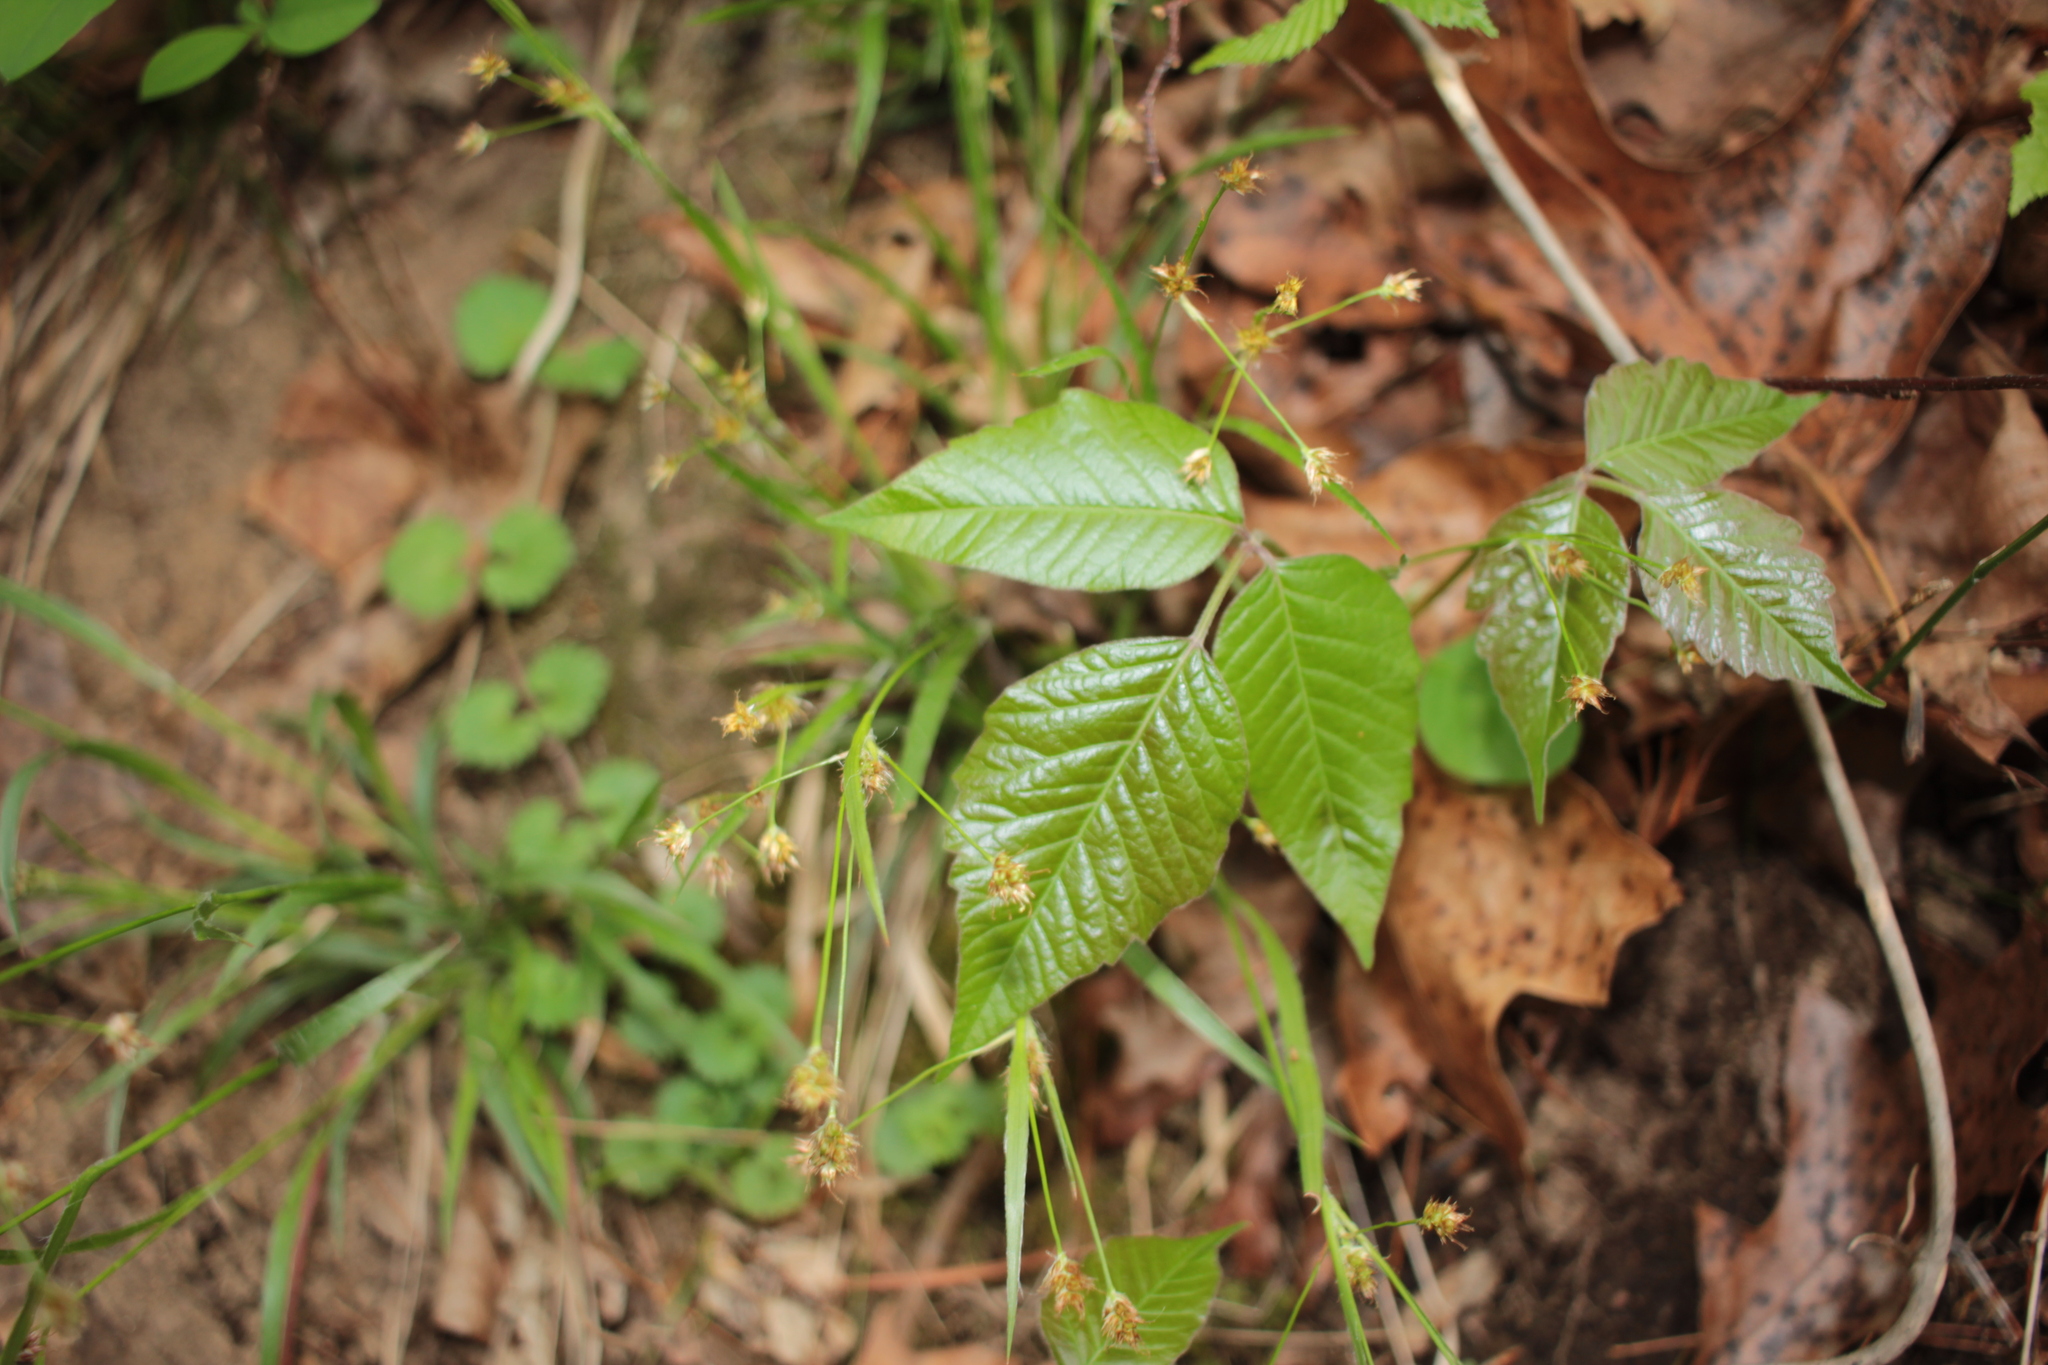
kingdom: Plantae
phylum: Tracheophyta
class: Magnoliopsida
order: Sapindales
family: Anacardiaceae
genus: Toxicodendron
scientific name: Toxicodendron radicans
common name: Poison ivy
